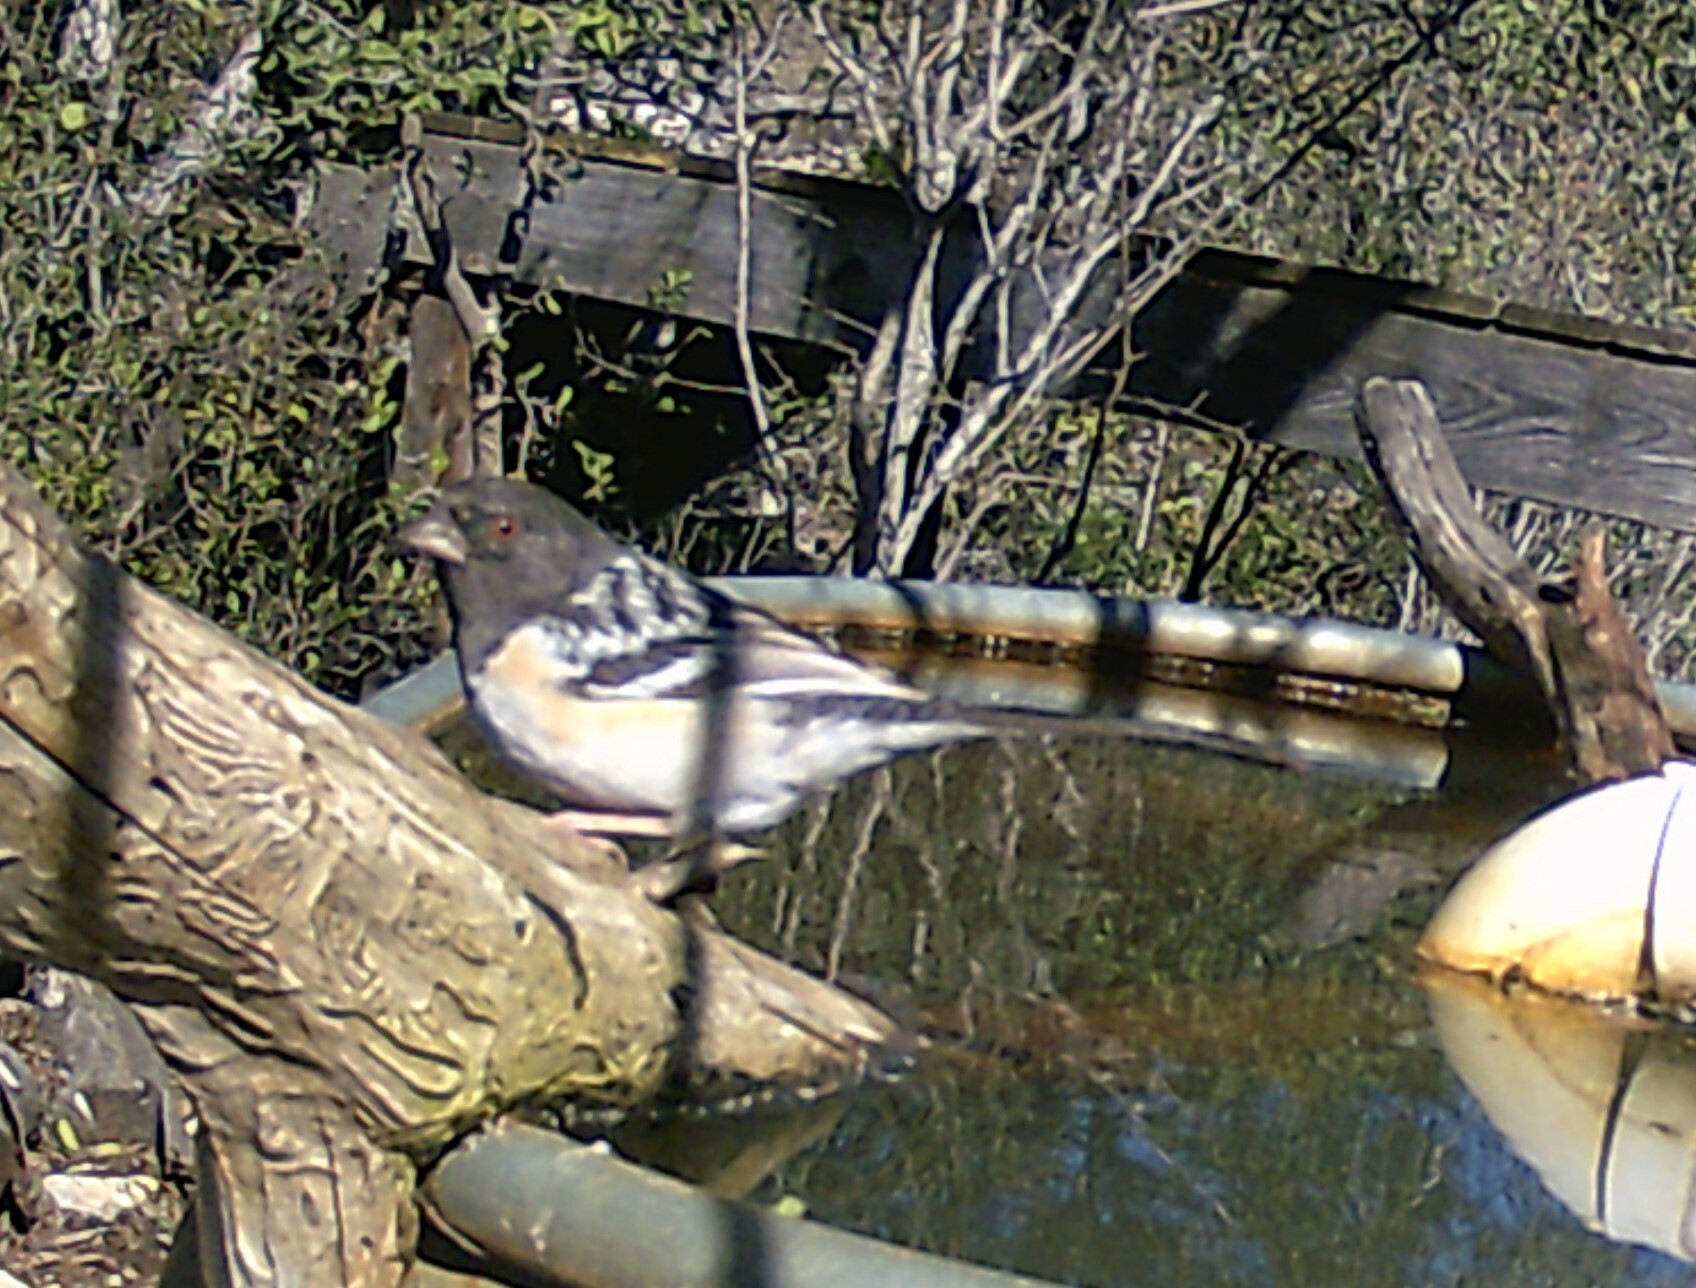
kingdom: Animalia
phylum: Chordata
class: Aves
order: Passeriformes
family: Passerellidae
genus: Pipilo
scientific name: Pipilo maculatus
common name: Spotted towhee
